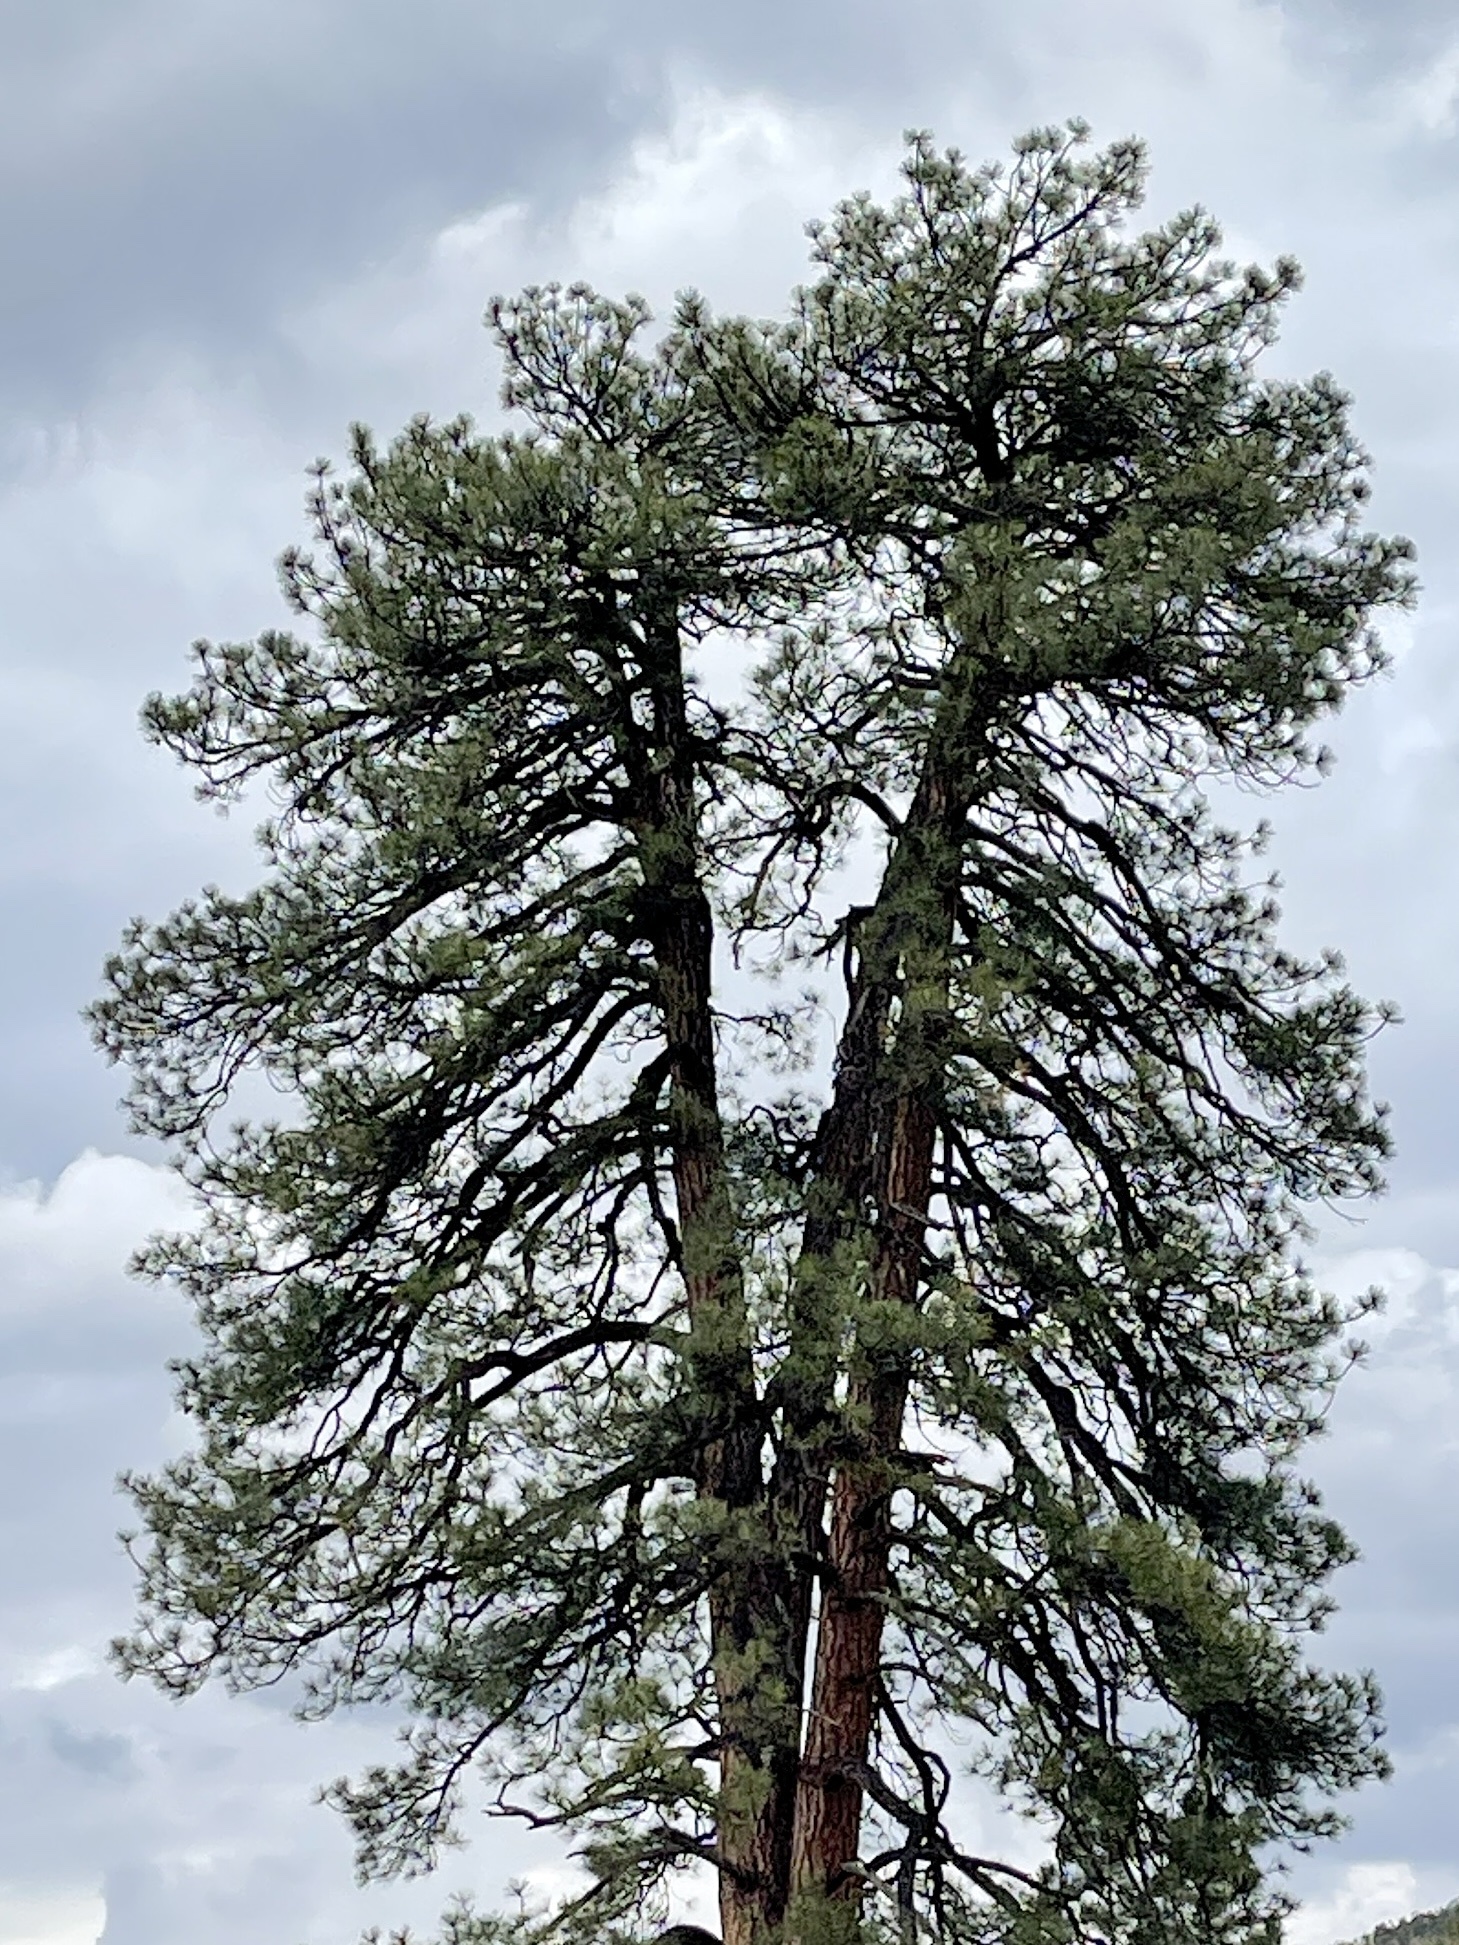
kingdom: Plantae
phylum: Tracheophyta
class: Pinopsida
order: Pinales
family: Pinaceae
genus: Pinus
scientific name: Pinus ponderosa
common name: Western yellow-pine
